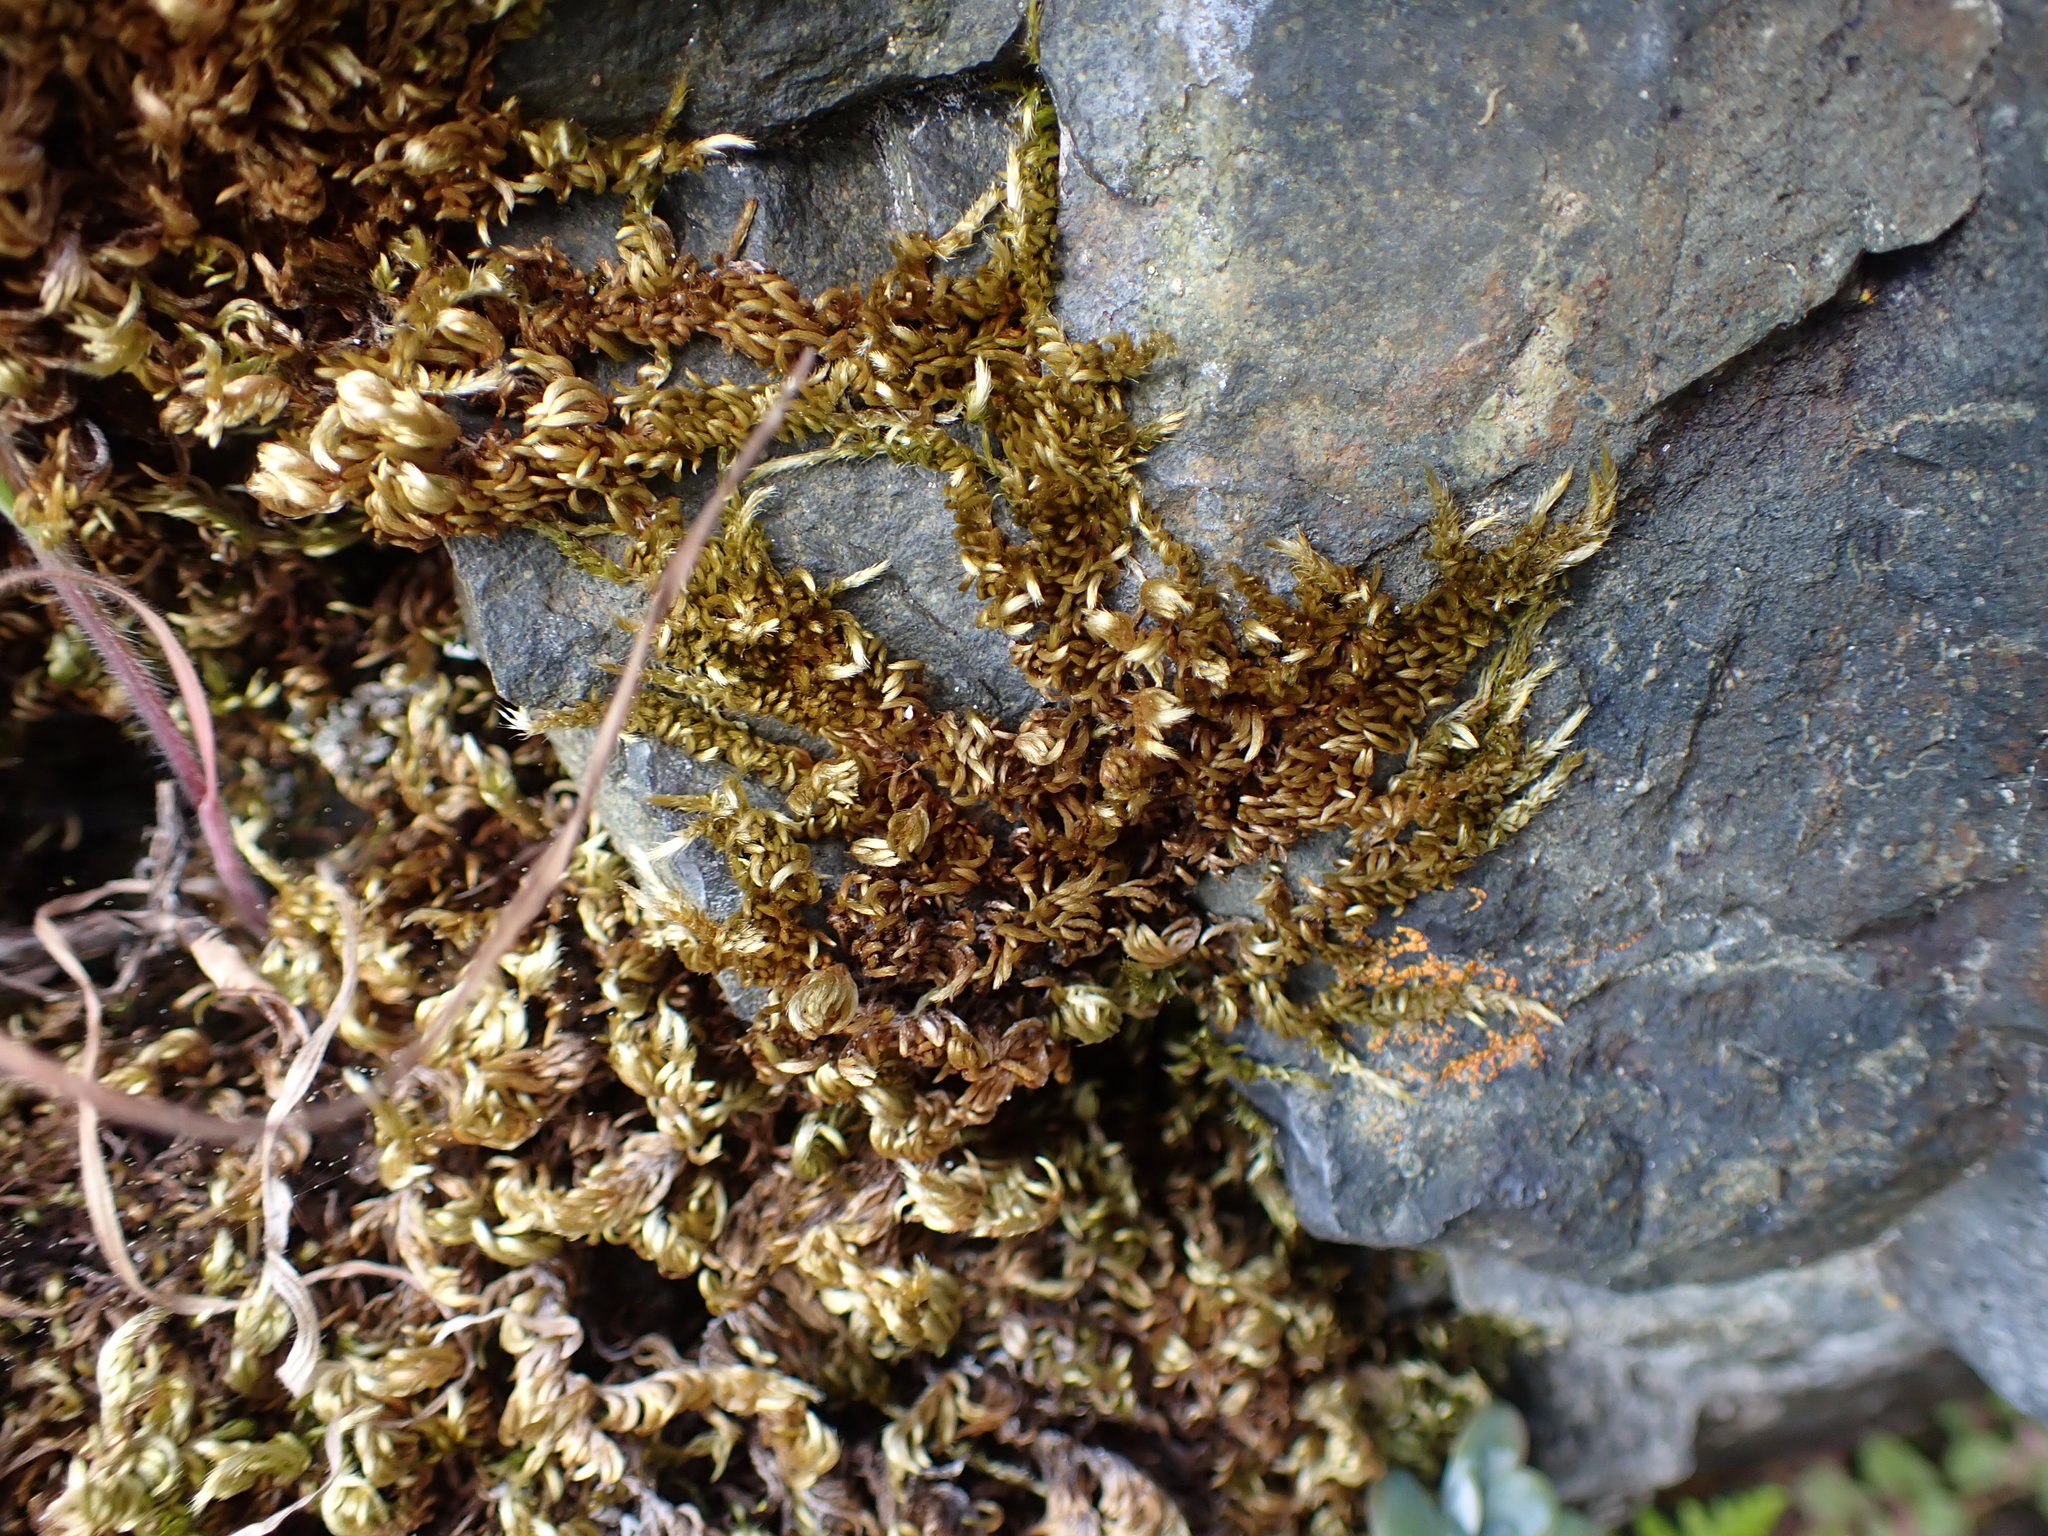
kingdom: Plantae
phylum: Bryophyta
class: Bryopsida
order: Hypnales
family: Brachytheciaceae
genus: Homalothecium
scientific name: Homalothecium aureum
